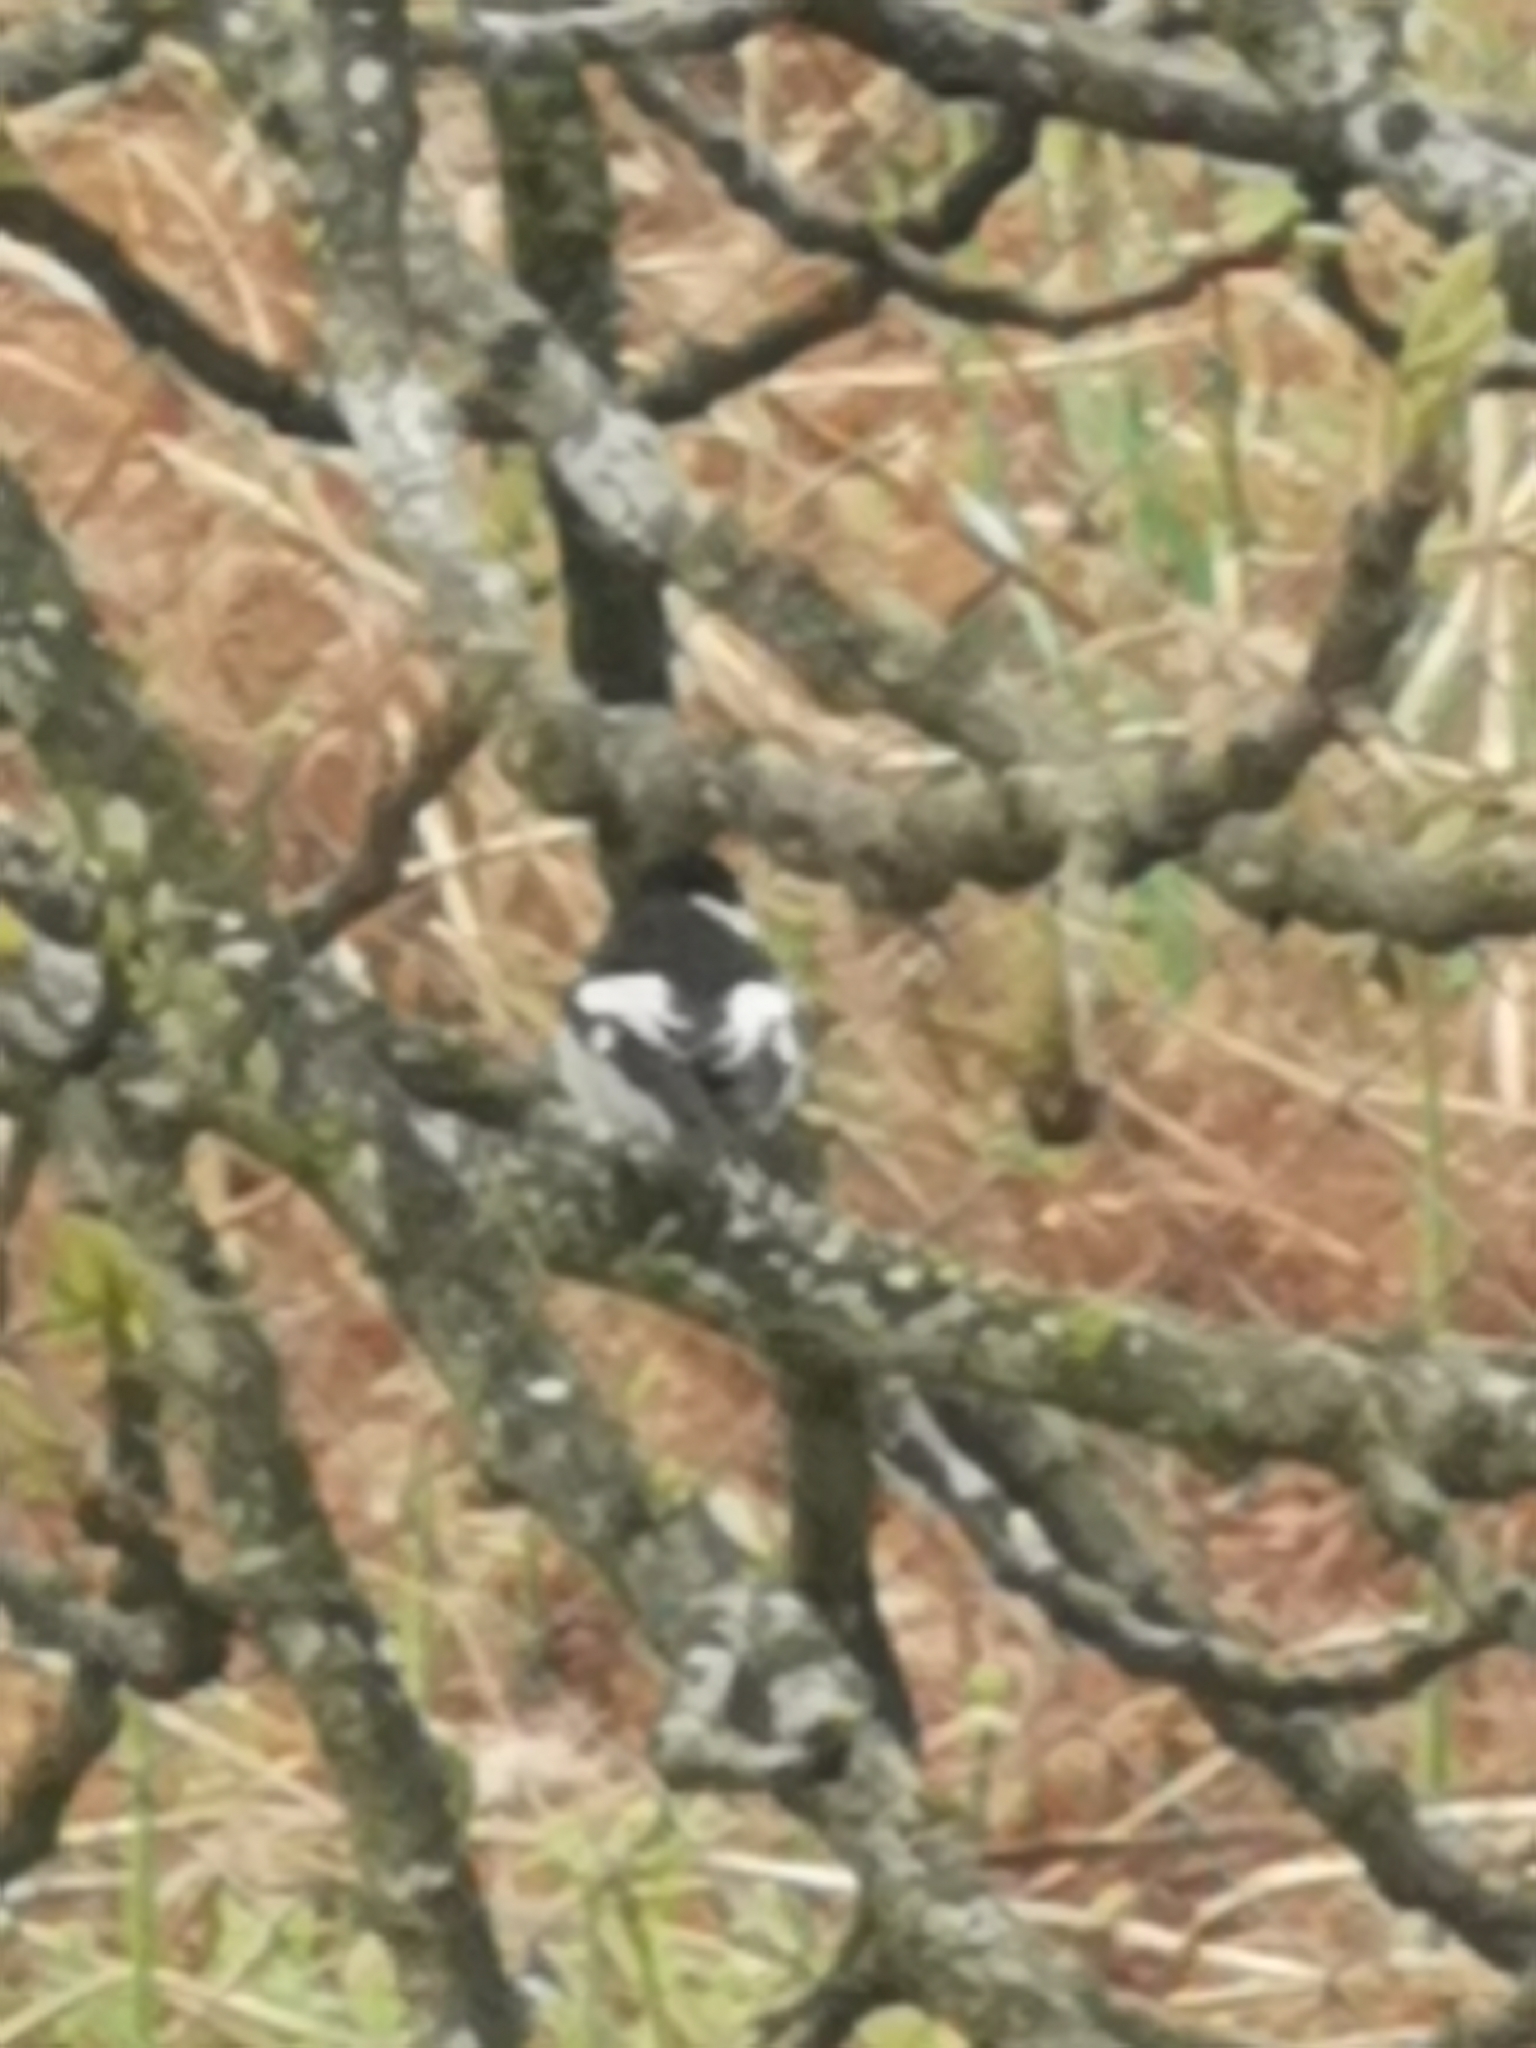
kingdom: Animalia
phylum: Chordata
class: Aves
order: Passeriformes
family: Muscicapidae
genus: Ficedula
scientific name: Ficedula hypoleuca
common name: European pied flycatcher
